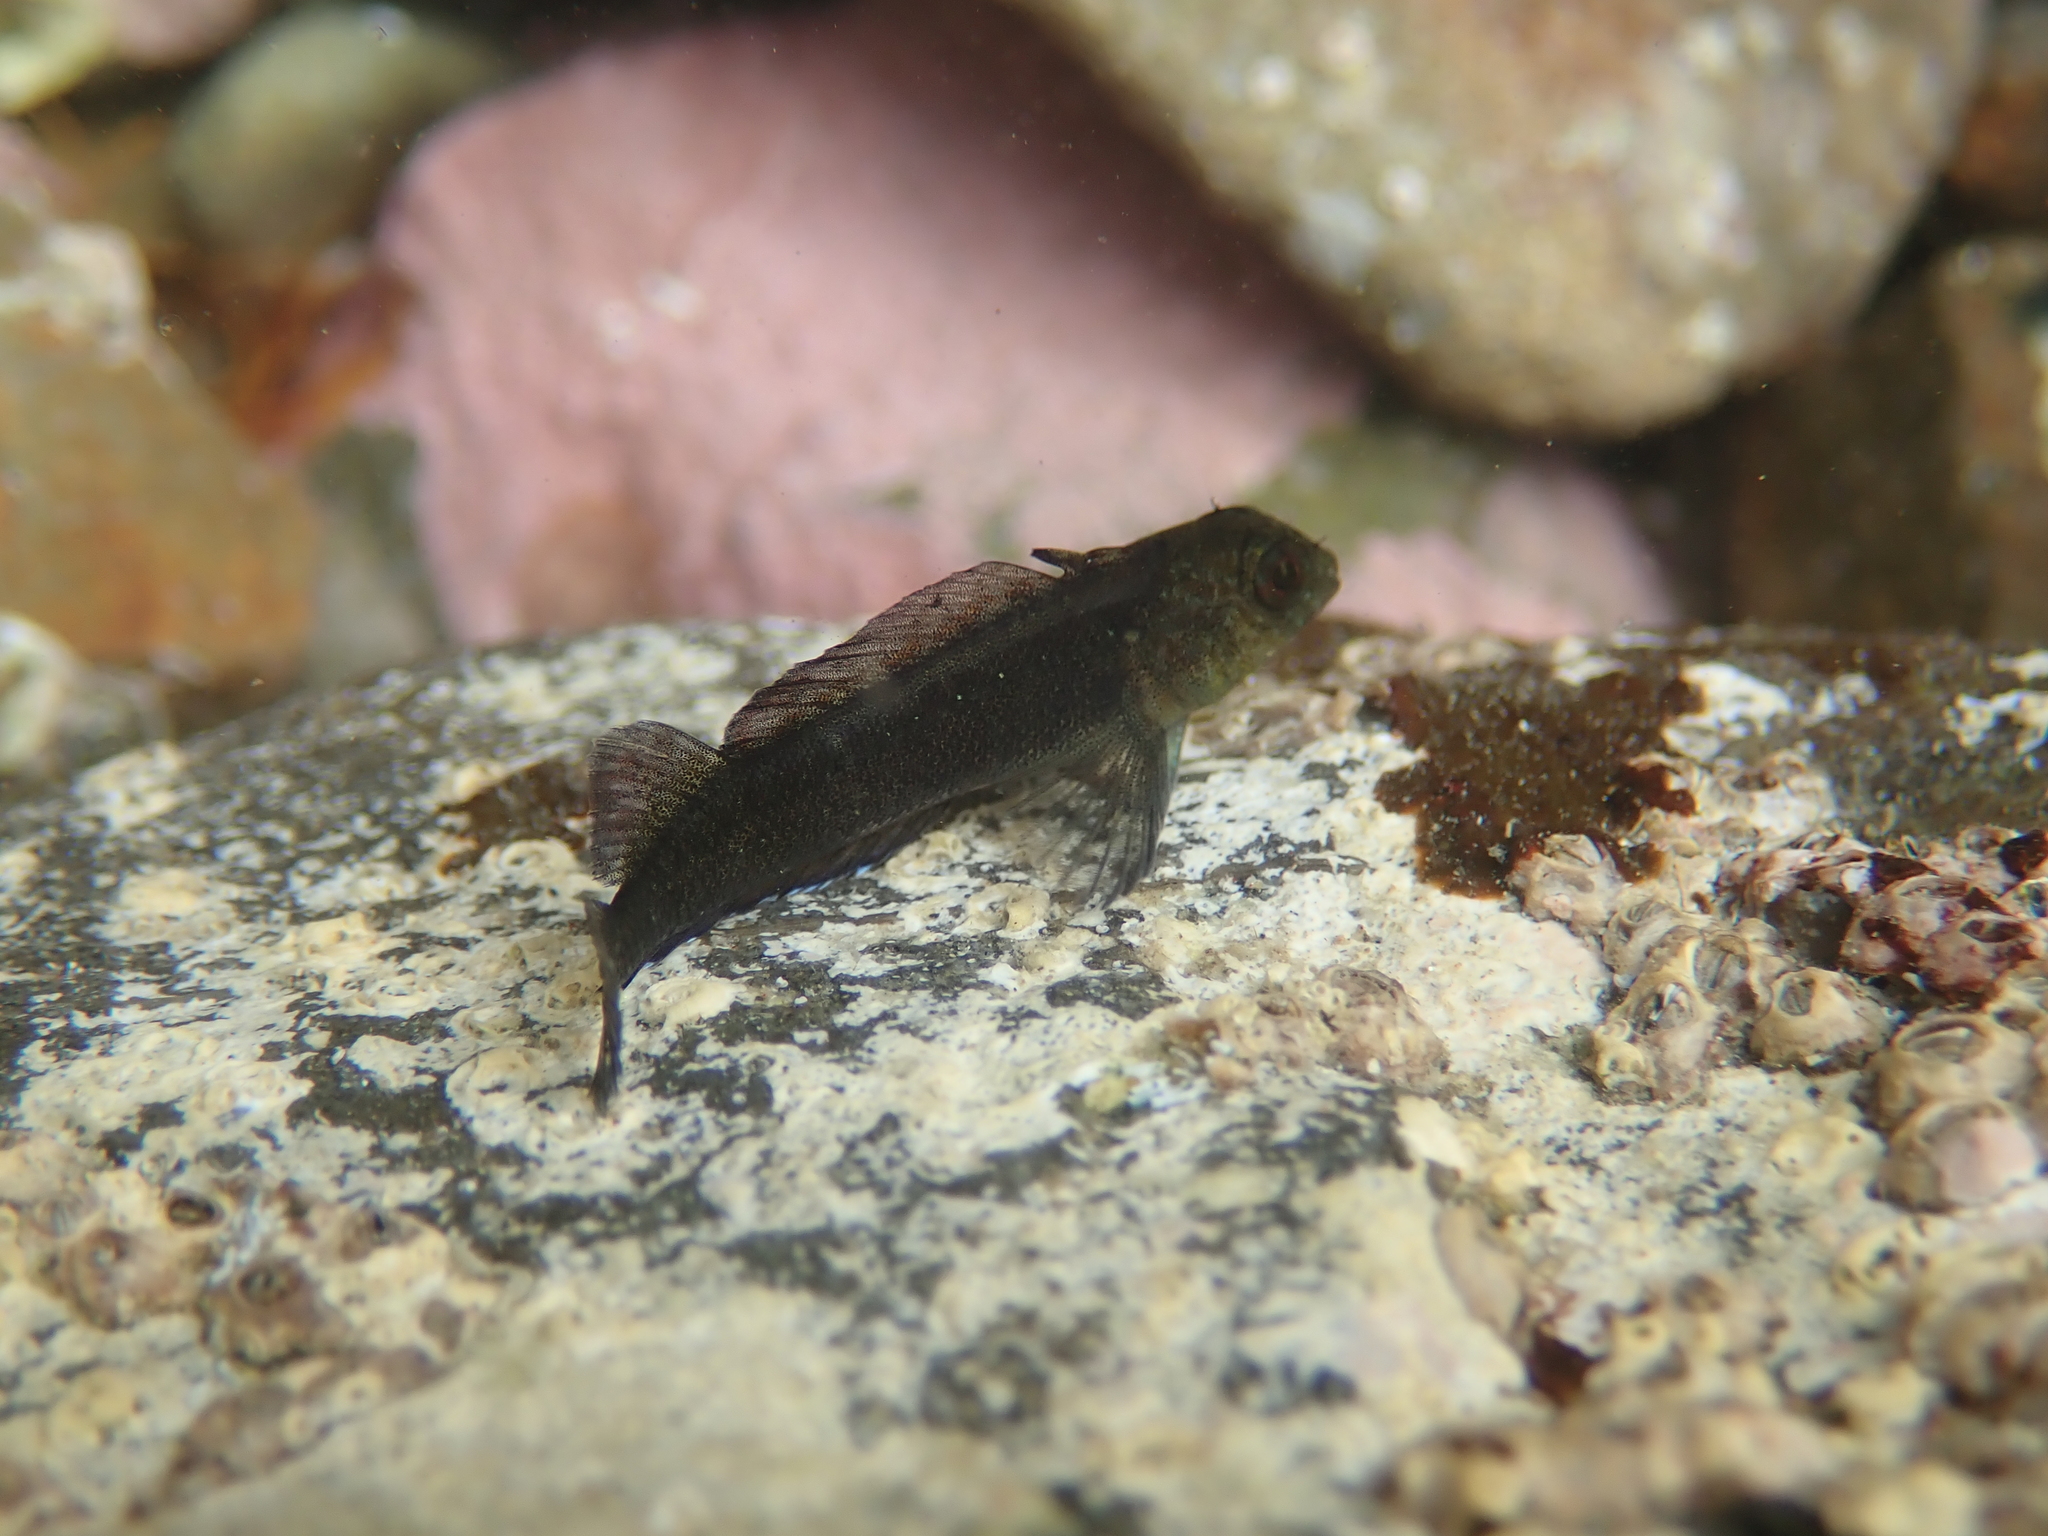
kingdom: Animalia
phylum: Chordata
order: Perciformes
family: Tripterygiidae
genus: Forsterygion
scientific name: Forsterygion lapillum
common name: Common triplefin
